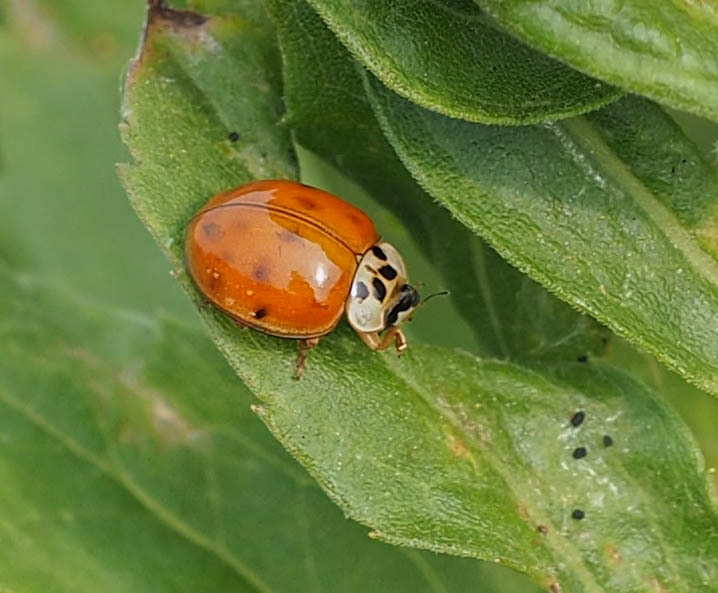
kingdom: Animalia
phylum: Arthropoda
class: Insecta
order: Coleoptera
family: Coccinellidae
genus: Harmonia
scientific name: Harmonia axyridis
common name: Harlequin ladybird
